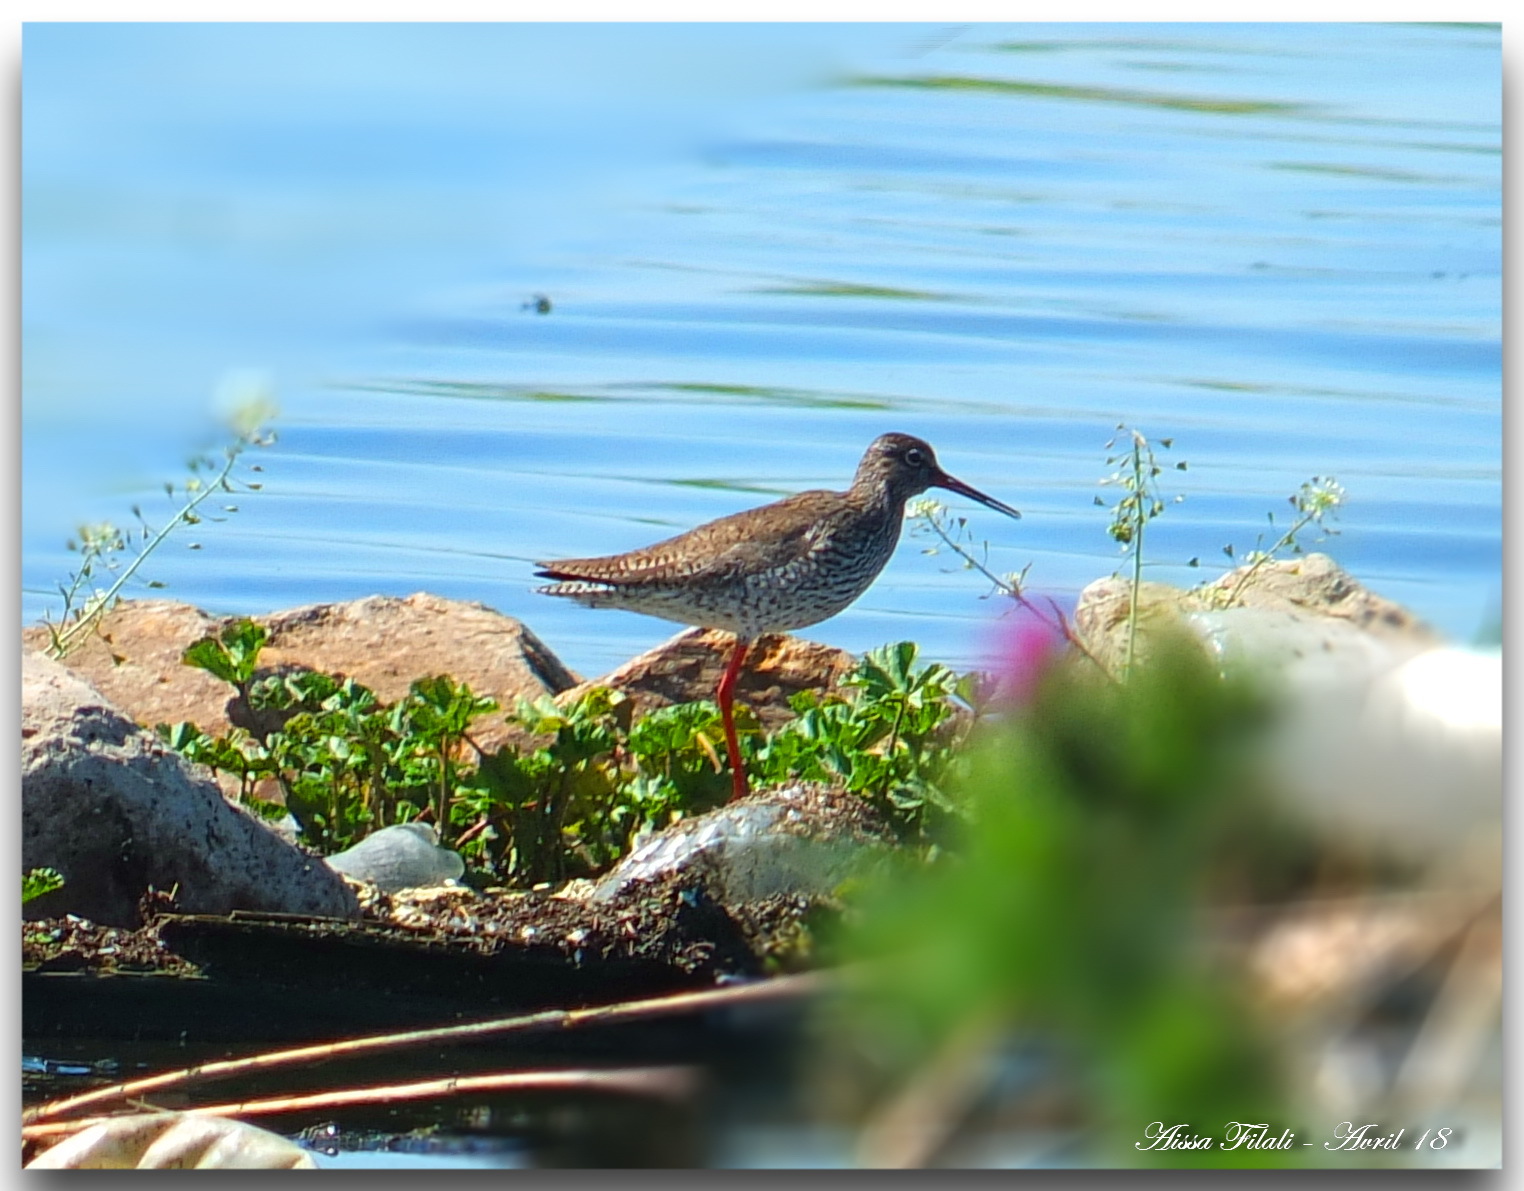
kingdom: Animalia
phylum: Chordata
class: Aves
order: Charadriiformes
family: Scolopacidae
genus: Tringa
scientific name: Tringa totanus
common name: Common redshank
